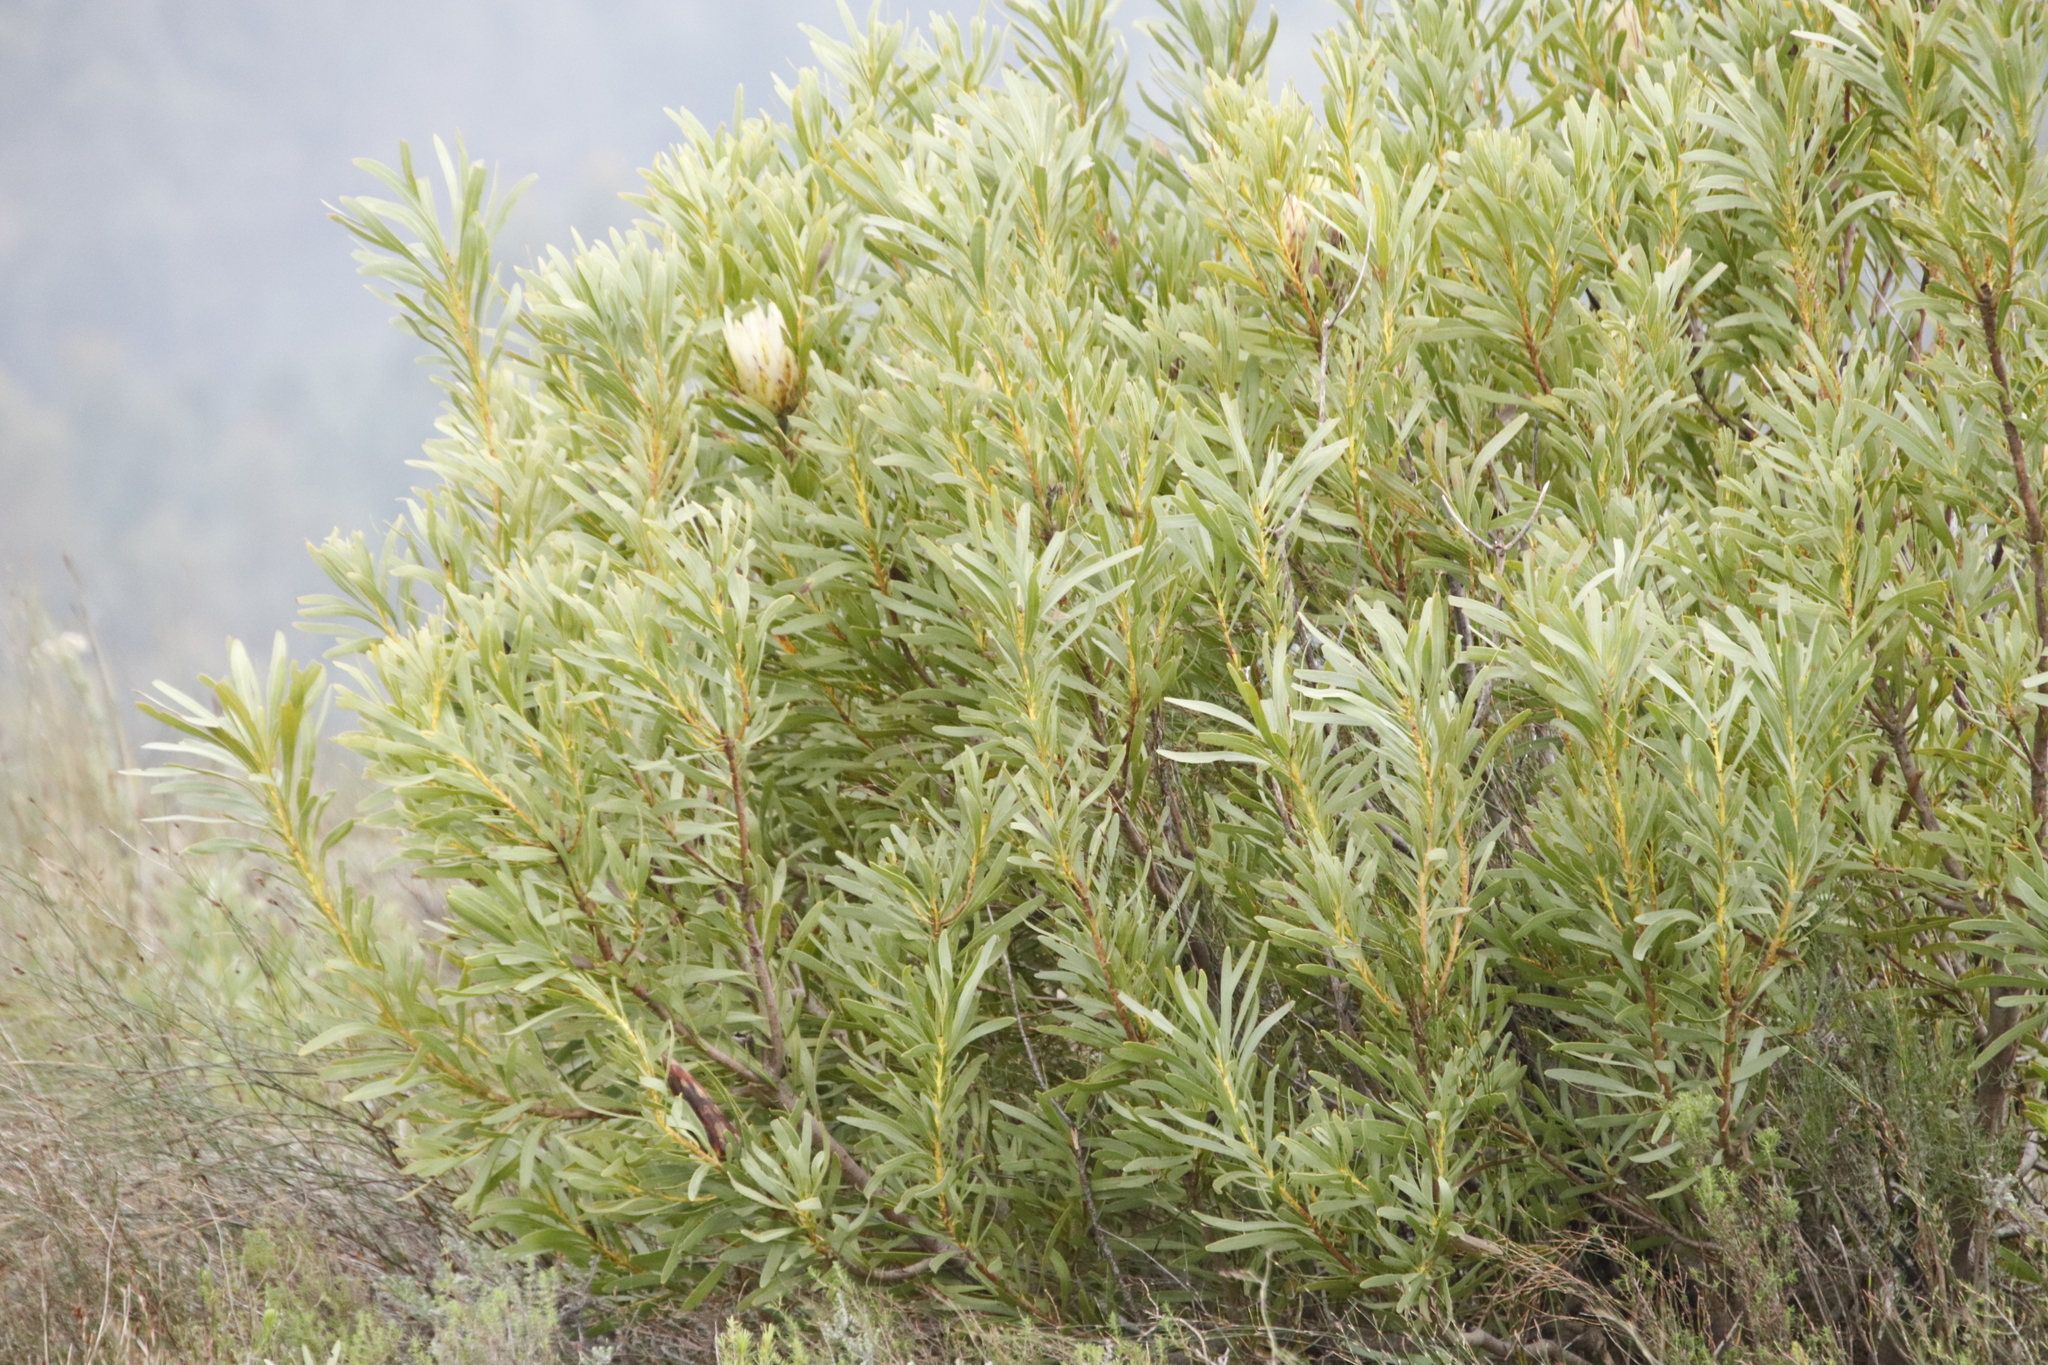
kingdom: Plantae
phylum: Tracheophyta
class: Magnoliopsida
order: Proteales
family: Proteaceae
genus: Protea
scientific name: Protea repens
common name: Sugarbush
